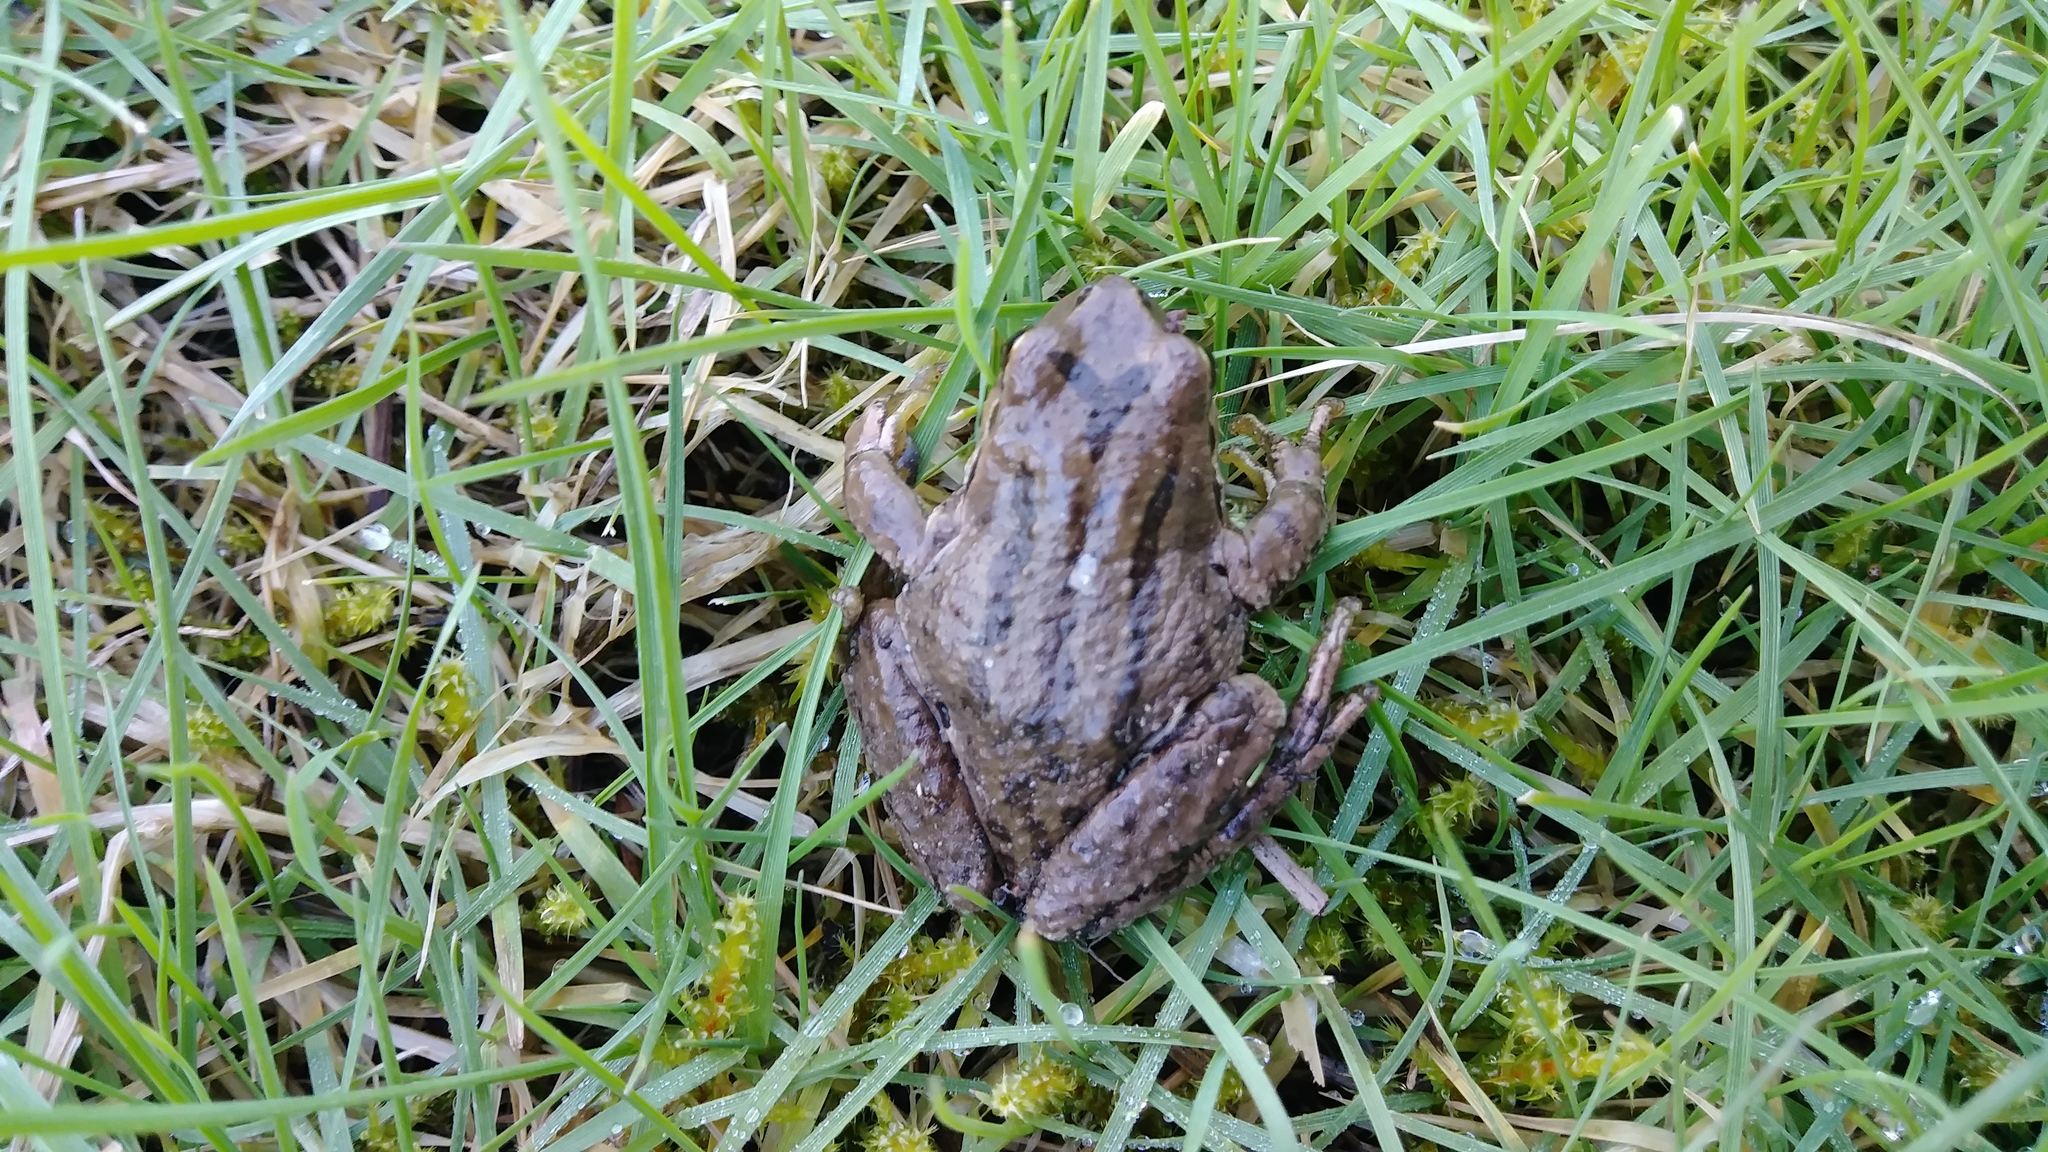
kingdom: Animalia
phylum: Chordata
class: Amphibia
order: Anura
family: Hylidae
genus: Pseudacris
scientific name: Pseudacris regilla
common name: Pacific chorus frog
